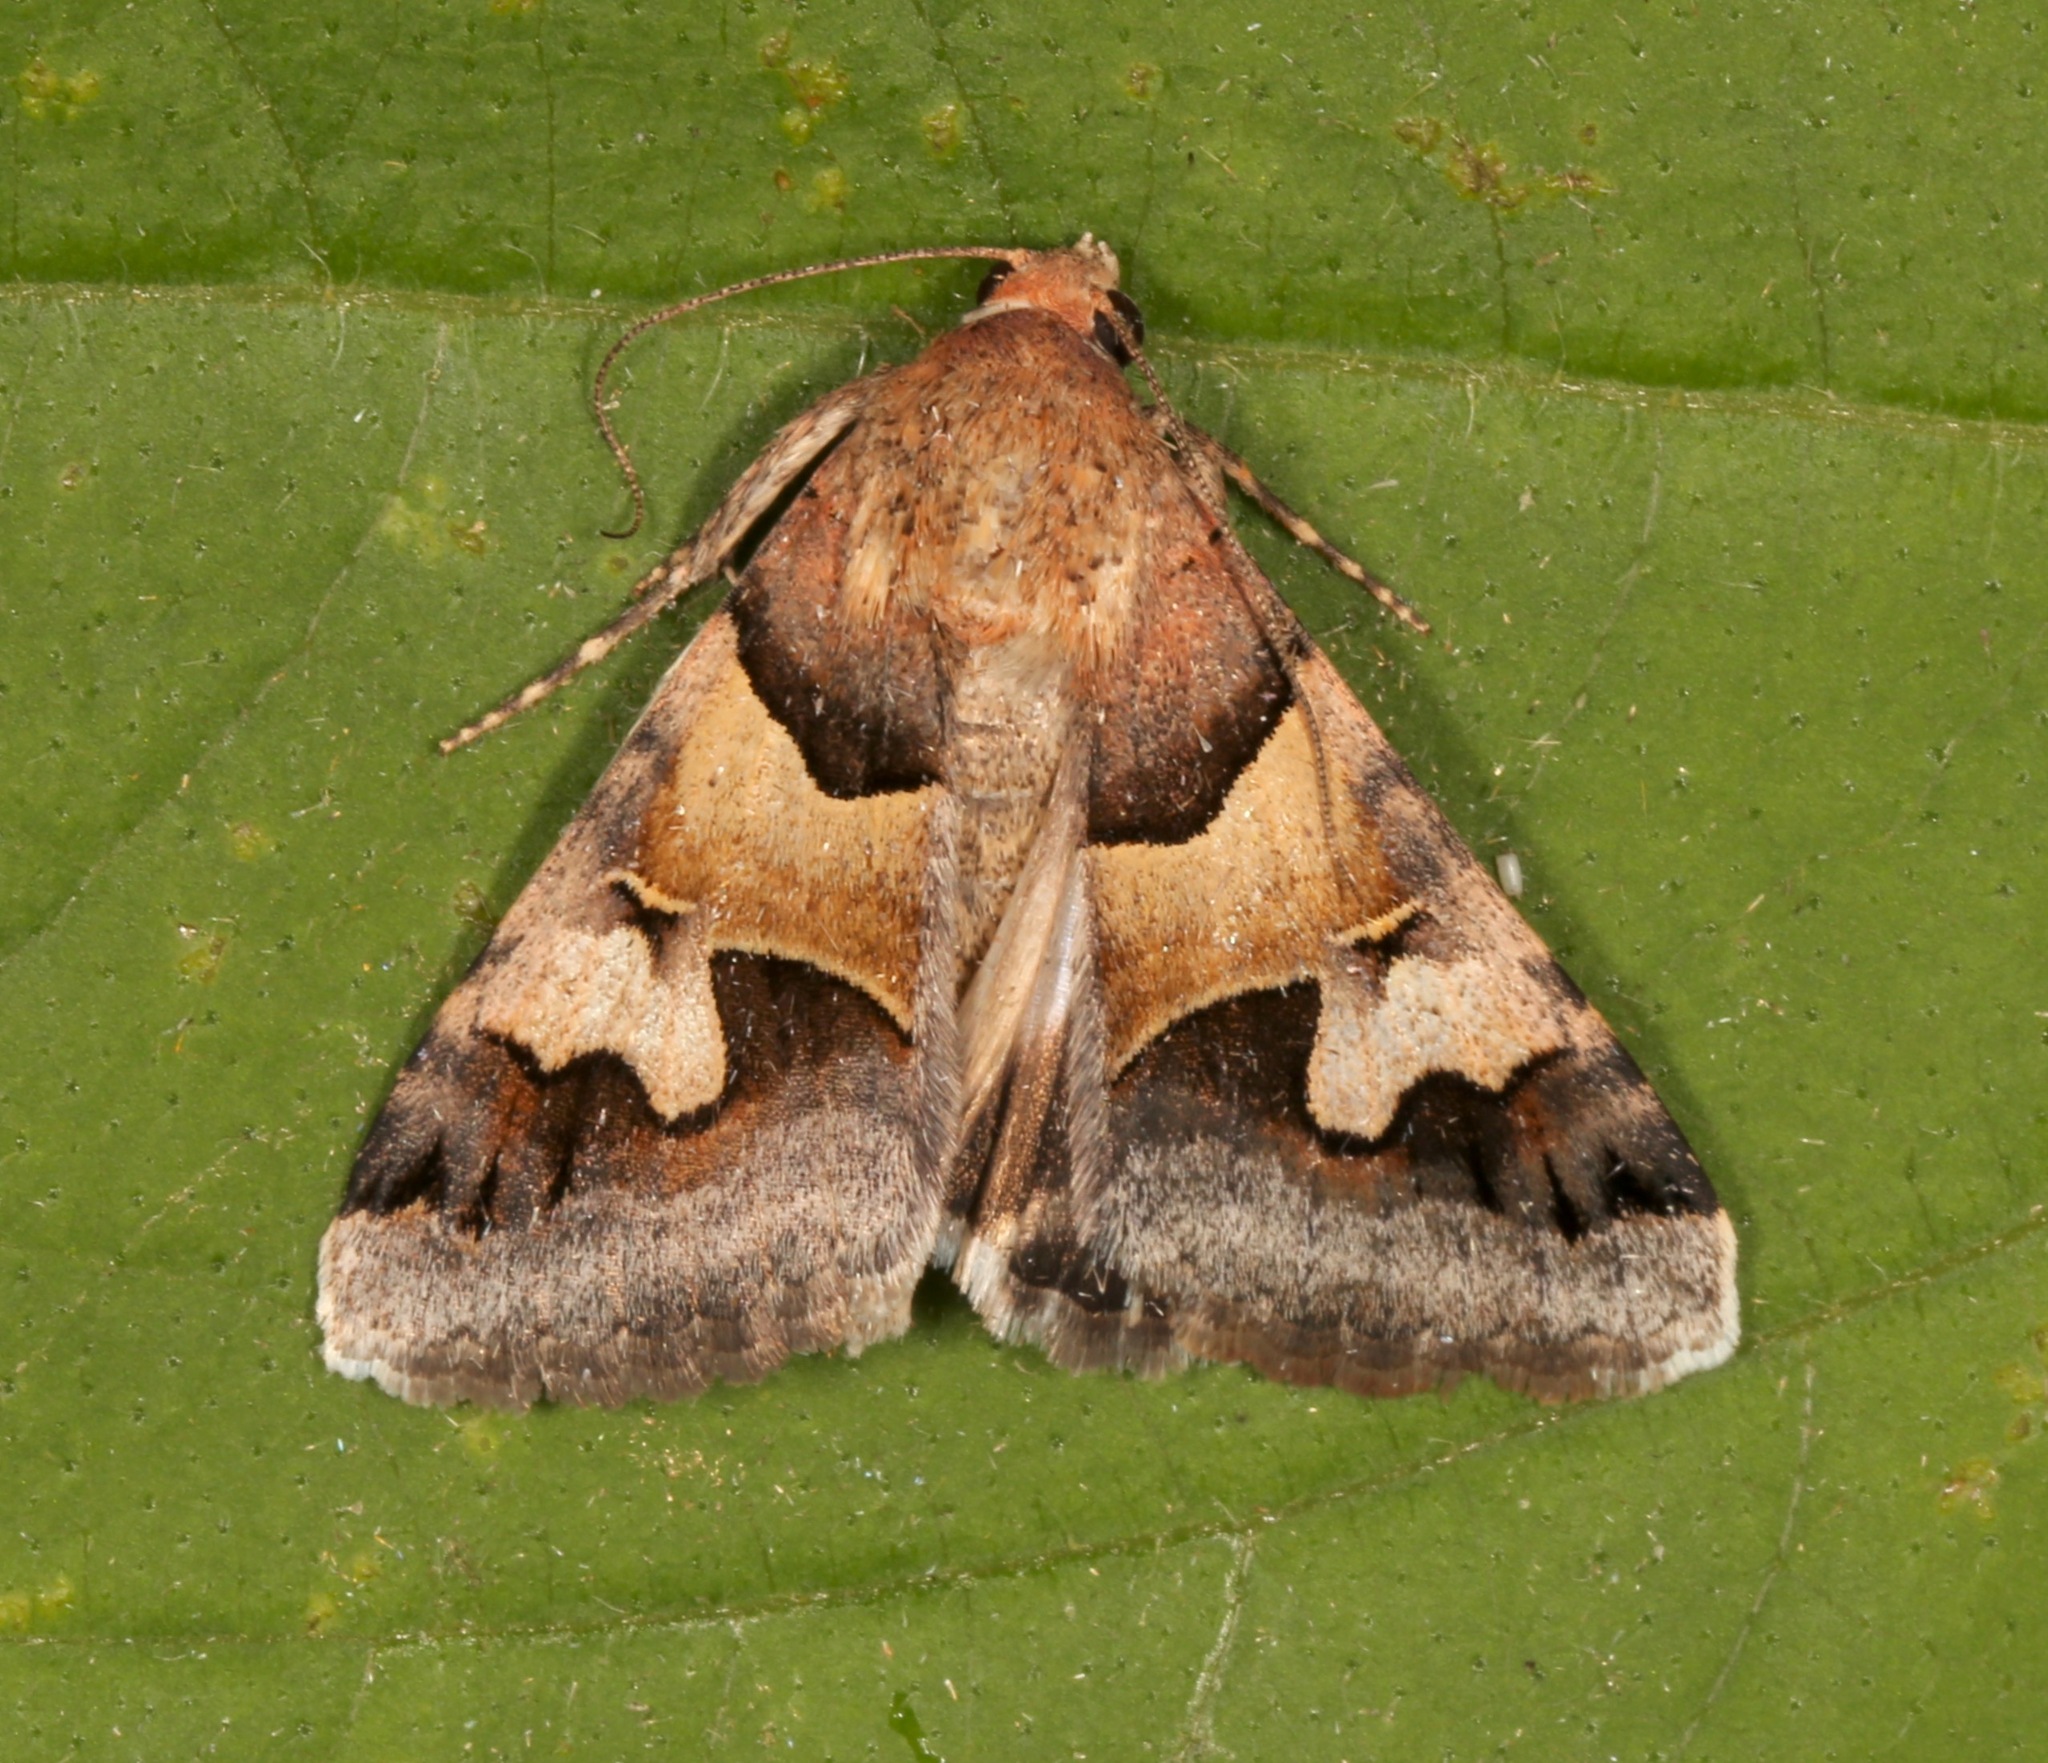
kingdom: Animalia
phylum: Arthropoda
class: Insecta
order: Lepidoptera
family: Erebidae
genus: Drasteria
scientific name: Drasteria pallescens
